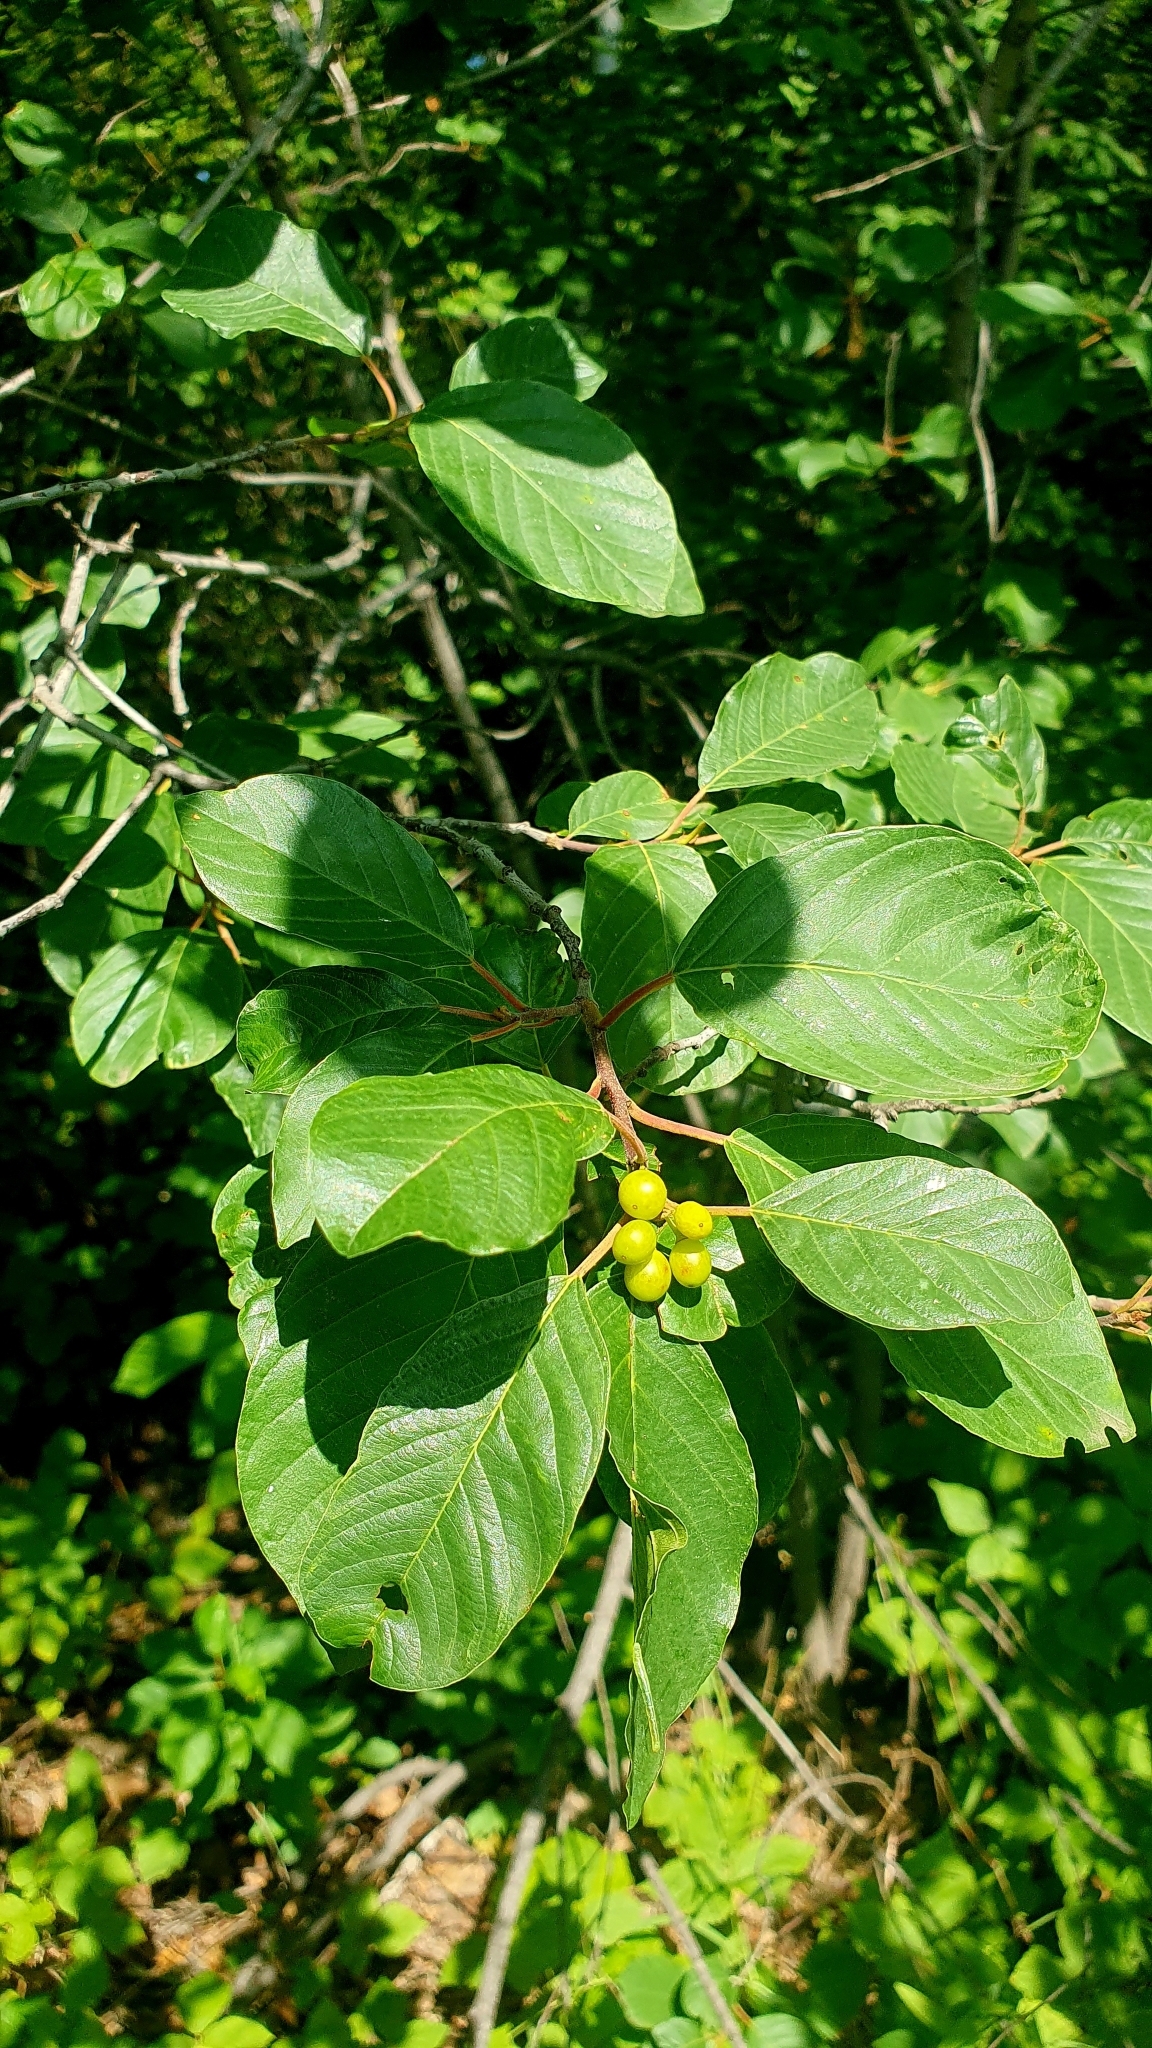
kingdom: Plantae
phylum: Tracheophyta
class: Magnoliopsida
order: Rosales
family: Rhamnaceae
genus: Frangula
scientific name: Frangula alnus
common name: Alder buckthorn
